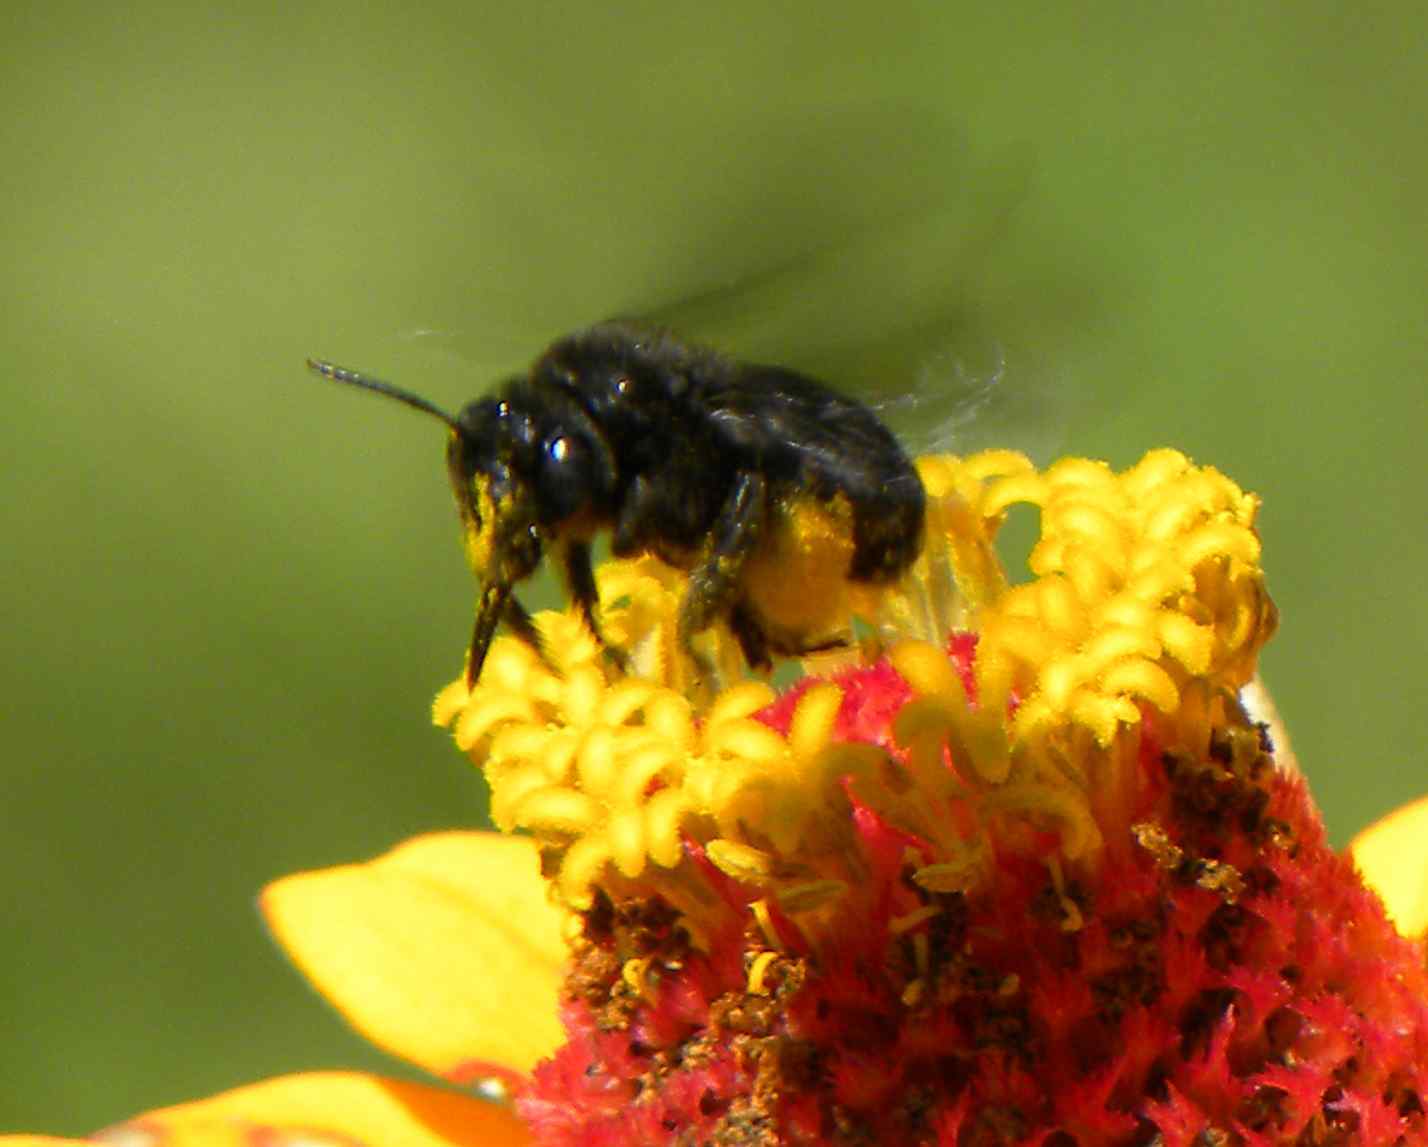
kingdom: Animalia
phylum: Arthropoda
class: Insecta
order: Hymenoptera
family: Apidae
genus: Melissodes
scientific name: Melissodes bimaculatus
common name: Two-spotted long-horned bee
